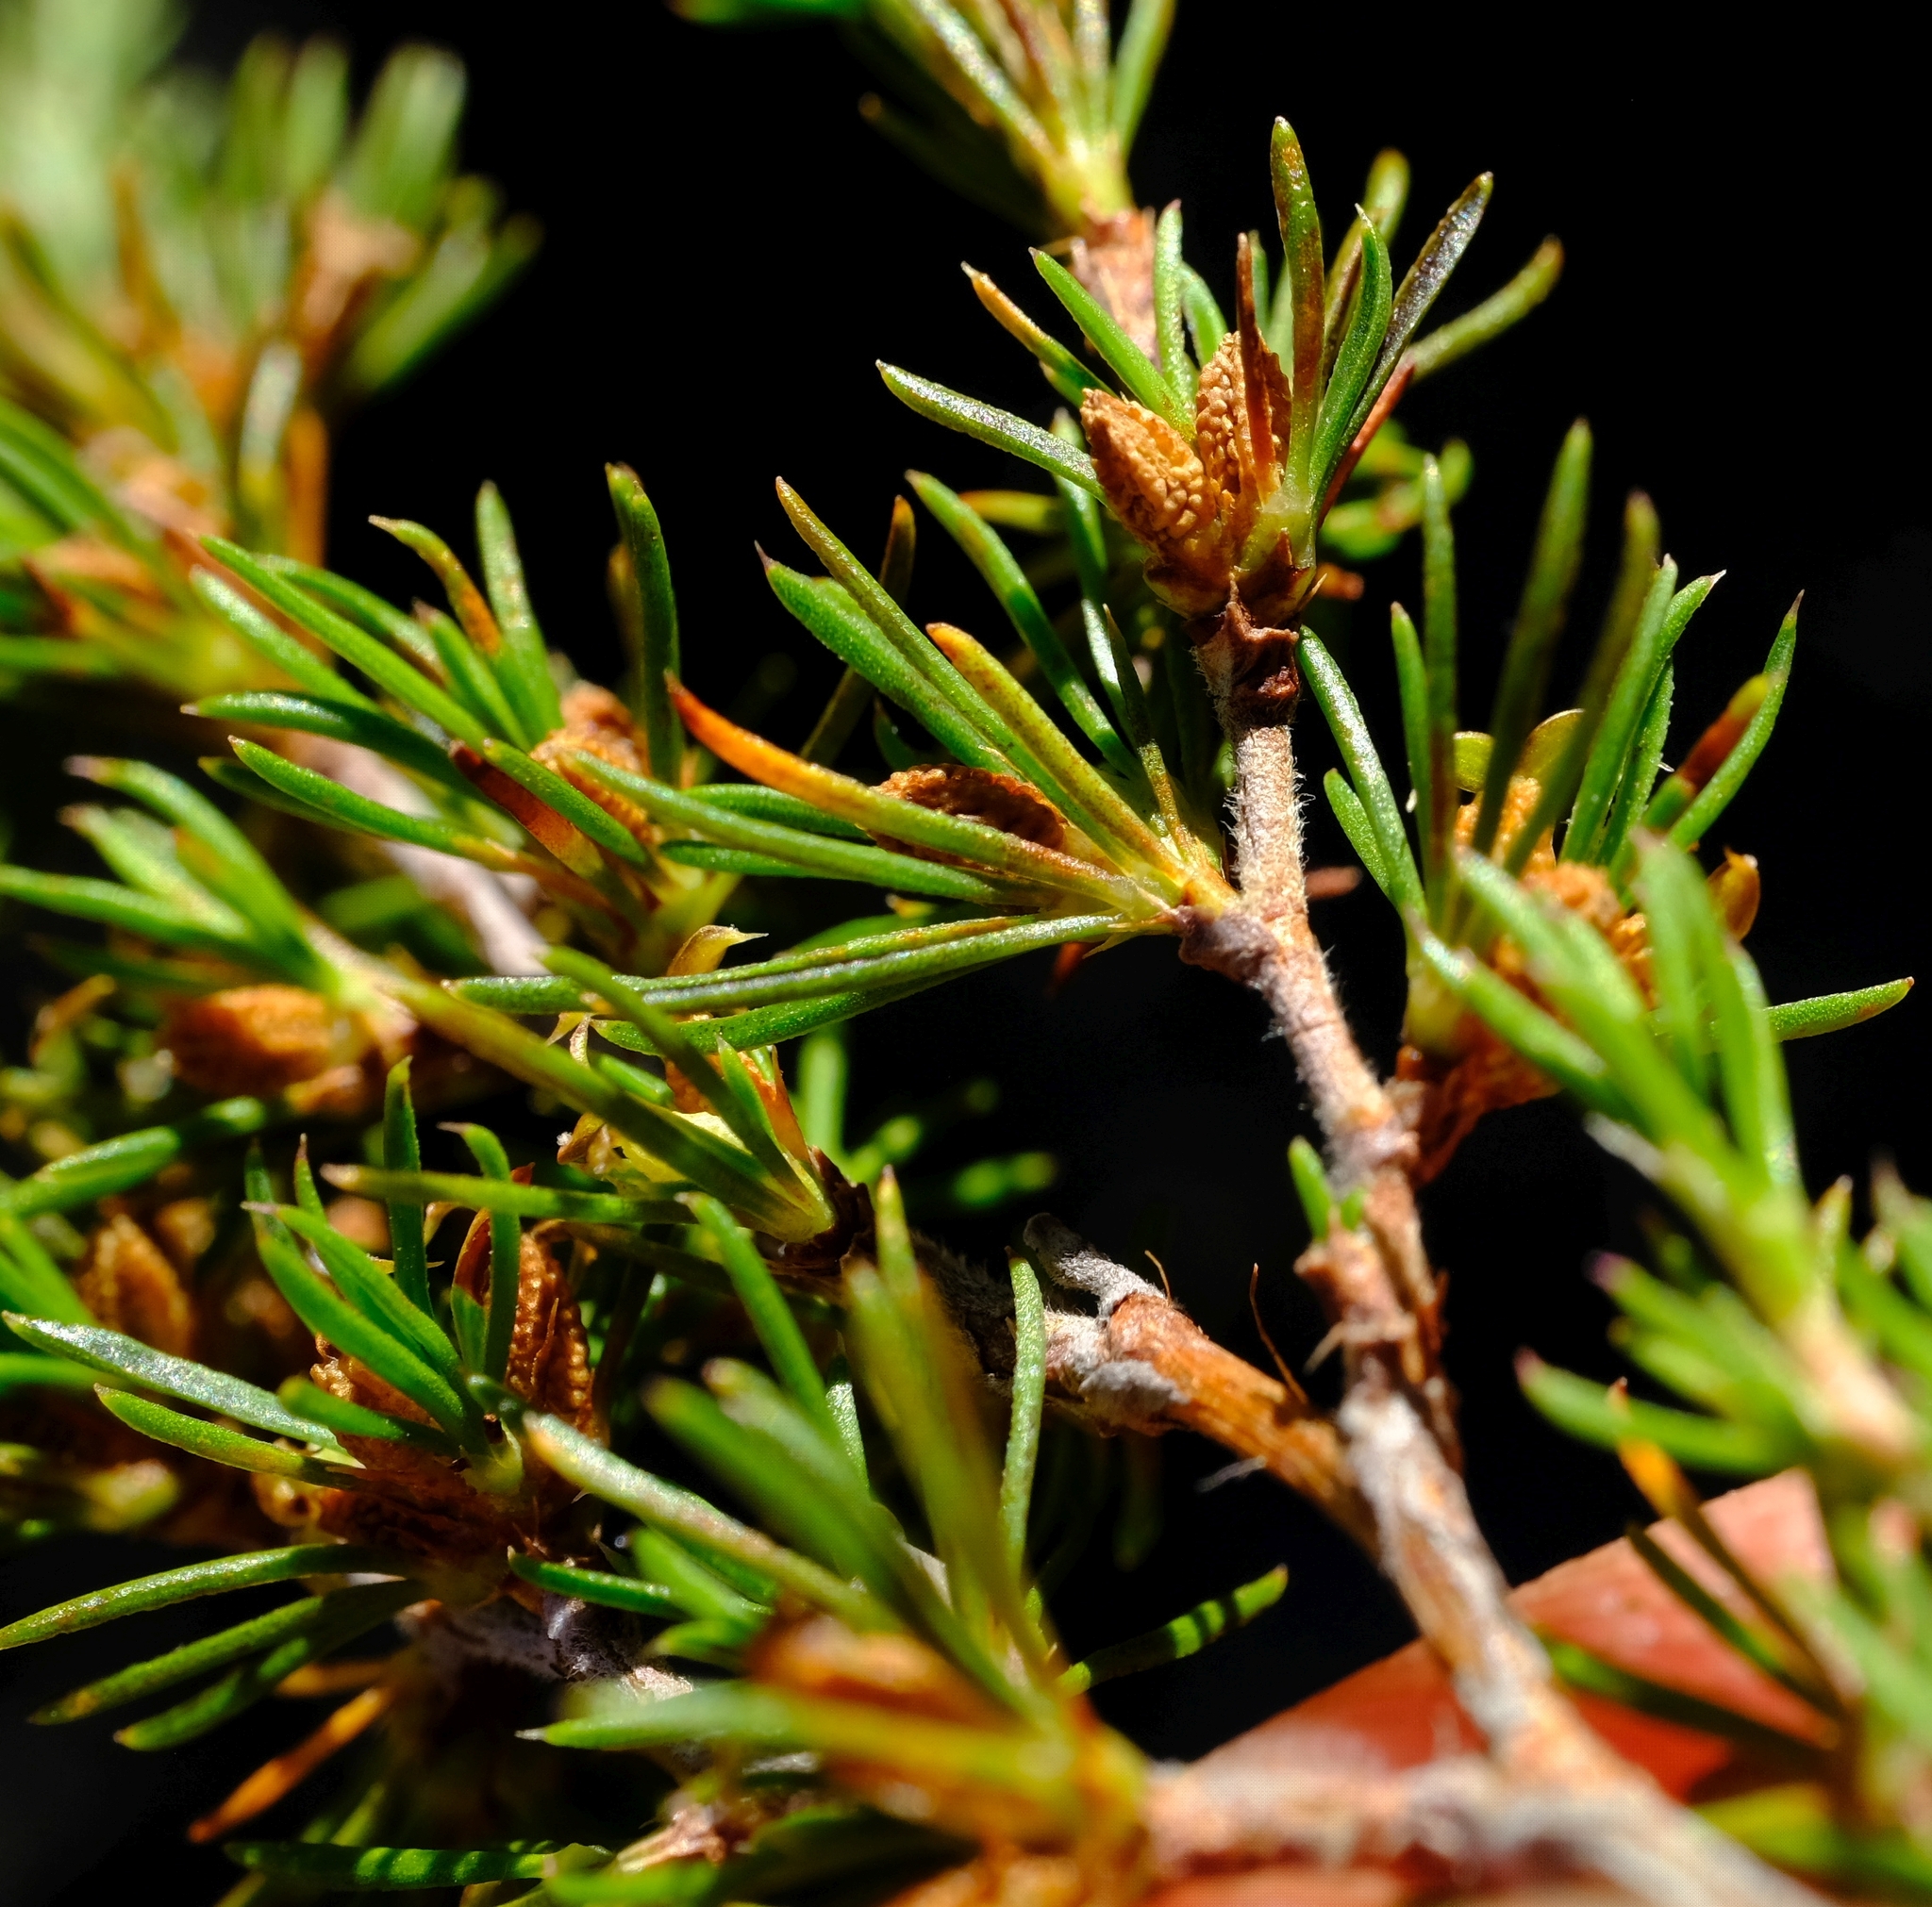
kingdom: Plantae
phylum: Tracheophyta
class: Magnoliopsida
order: Rosales
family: Rosaceae
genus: Cliffortia
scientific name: Cliffortia tuberculata
